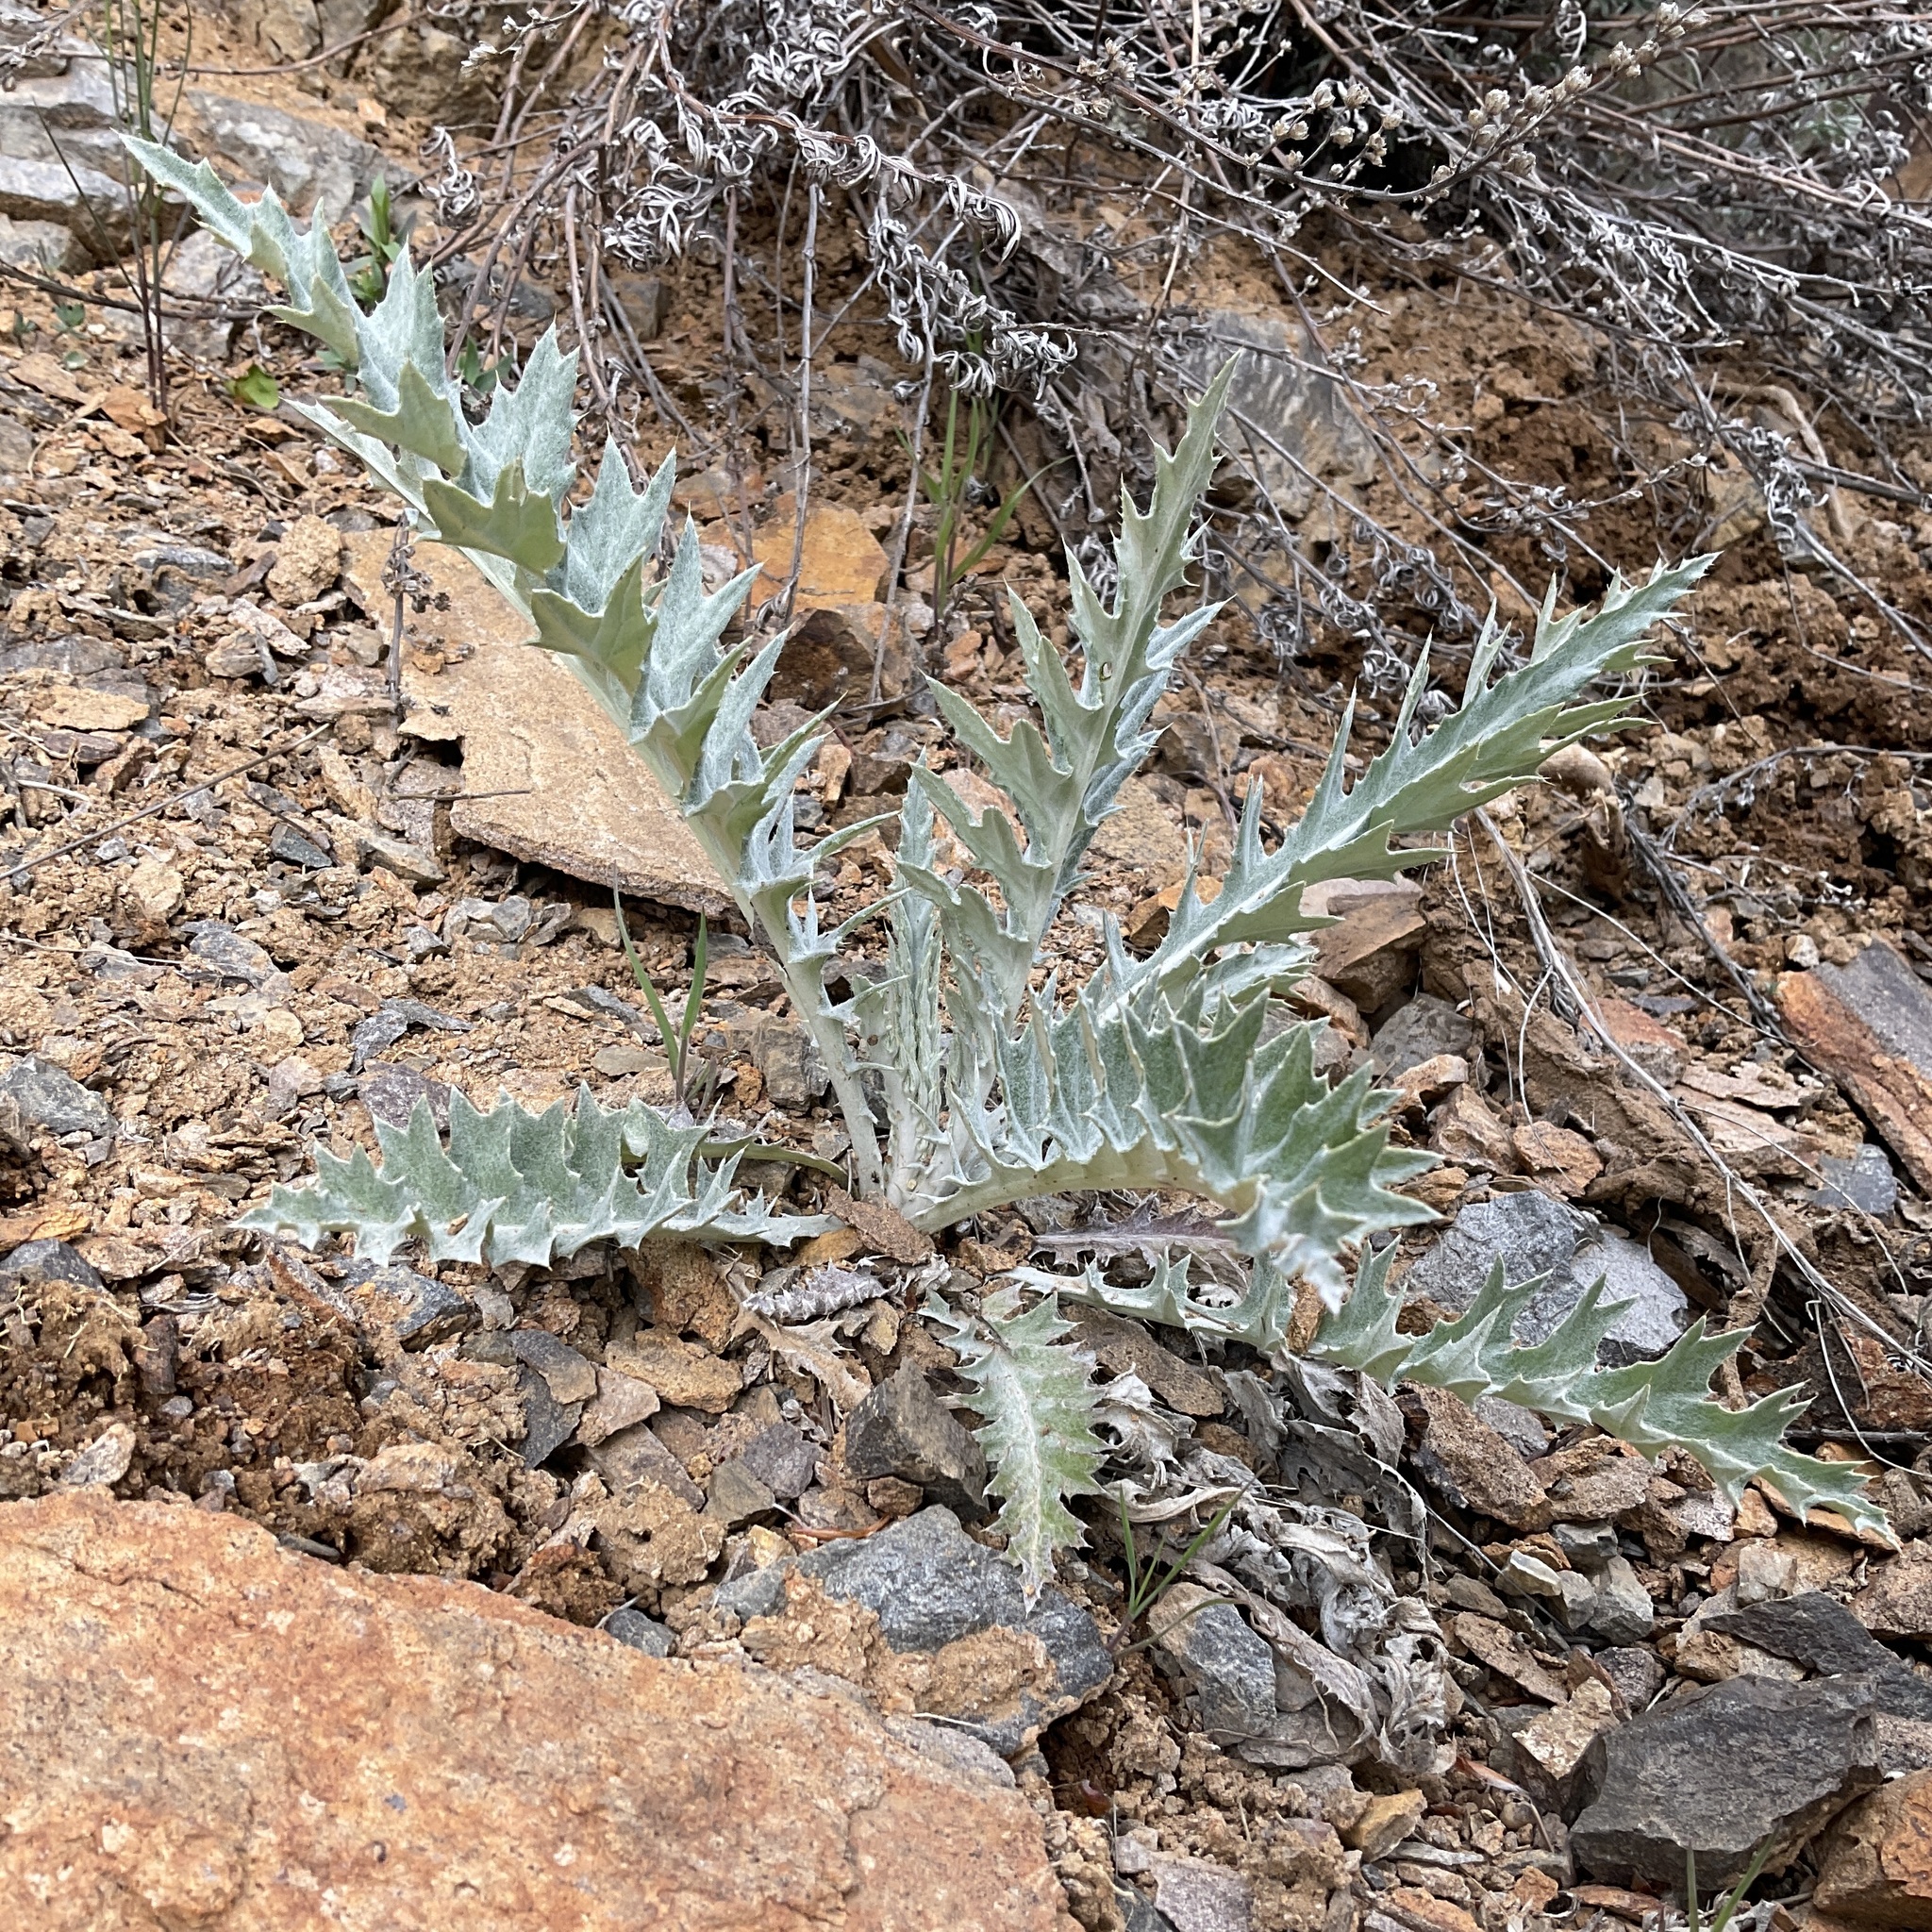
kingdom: Plantae
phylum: Tracheophyta
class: Magnoliopsida
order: Asterales
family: Asteraceae
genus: Cirsium
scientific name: Cirsium undulatum
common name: Pasture thistle
